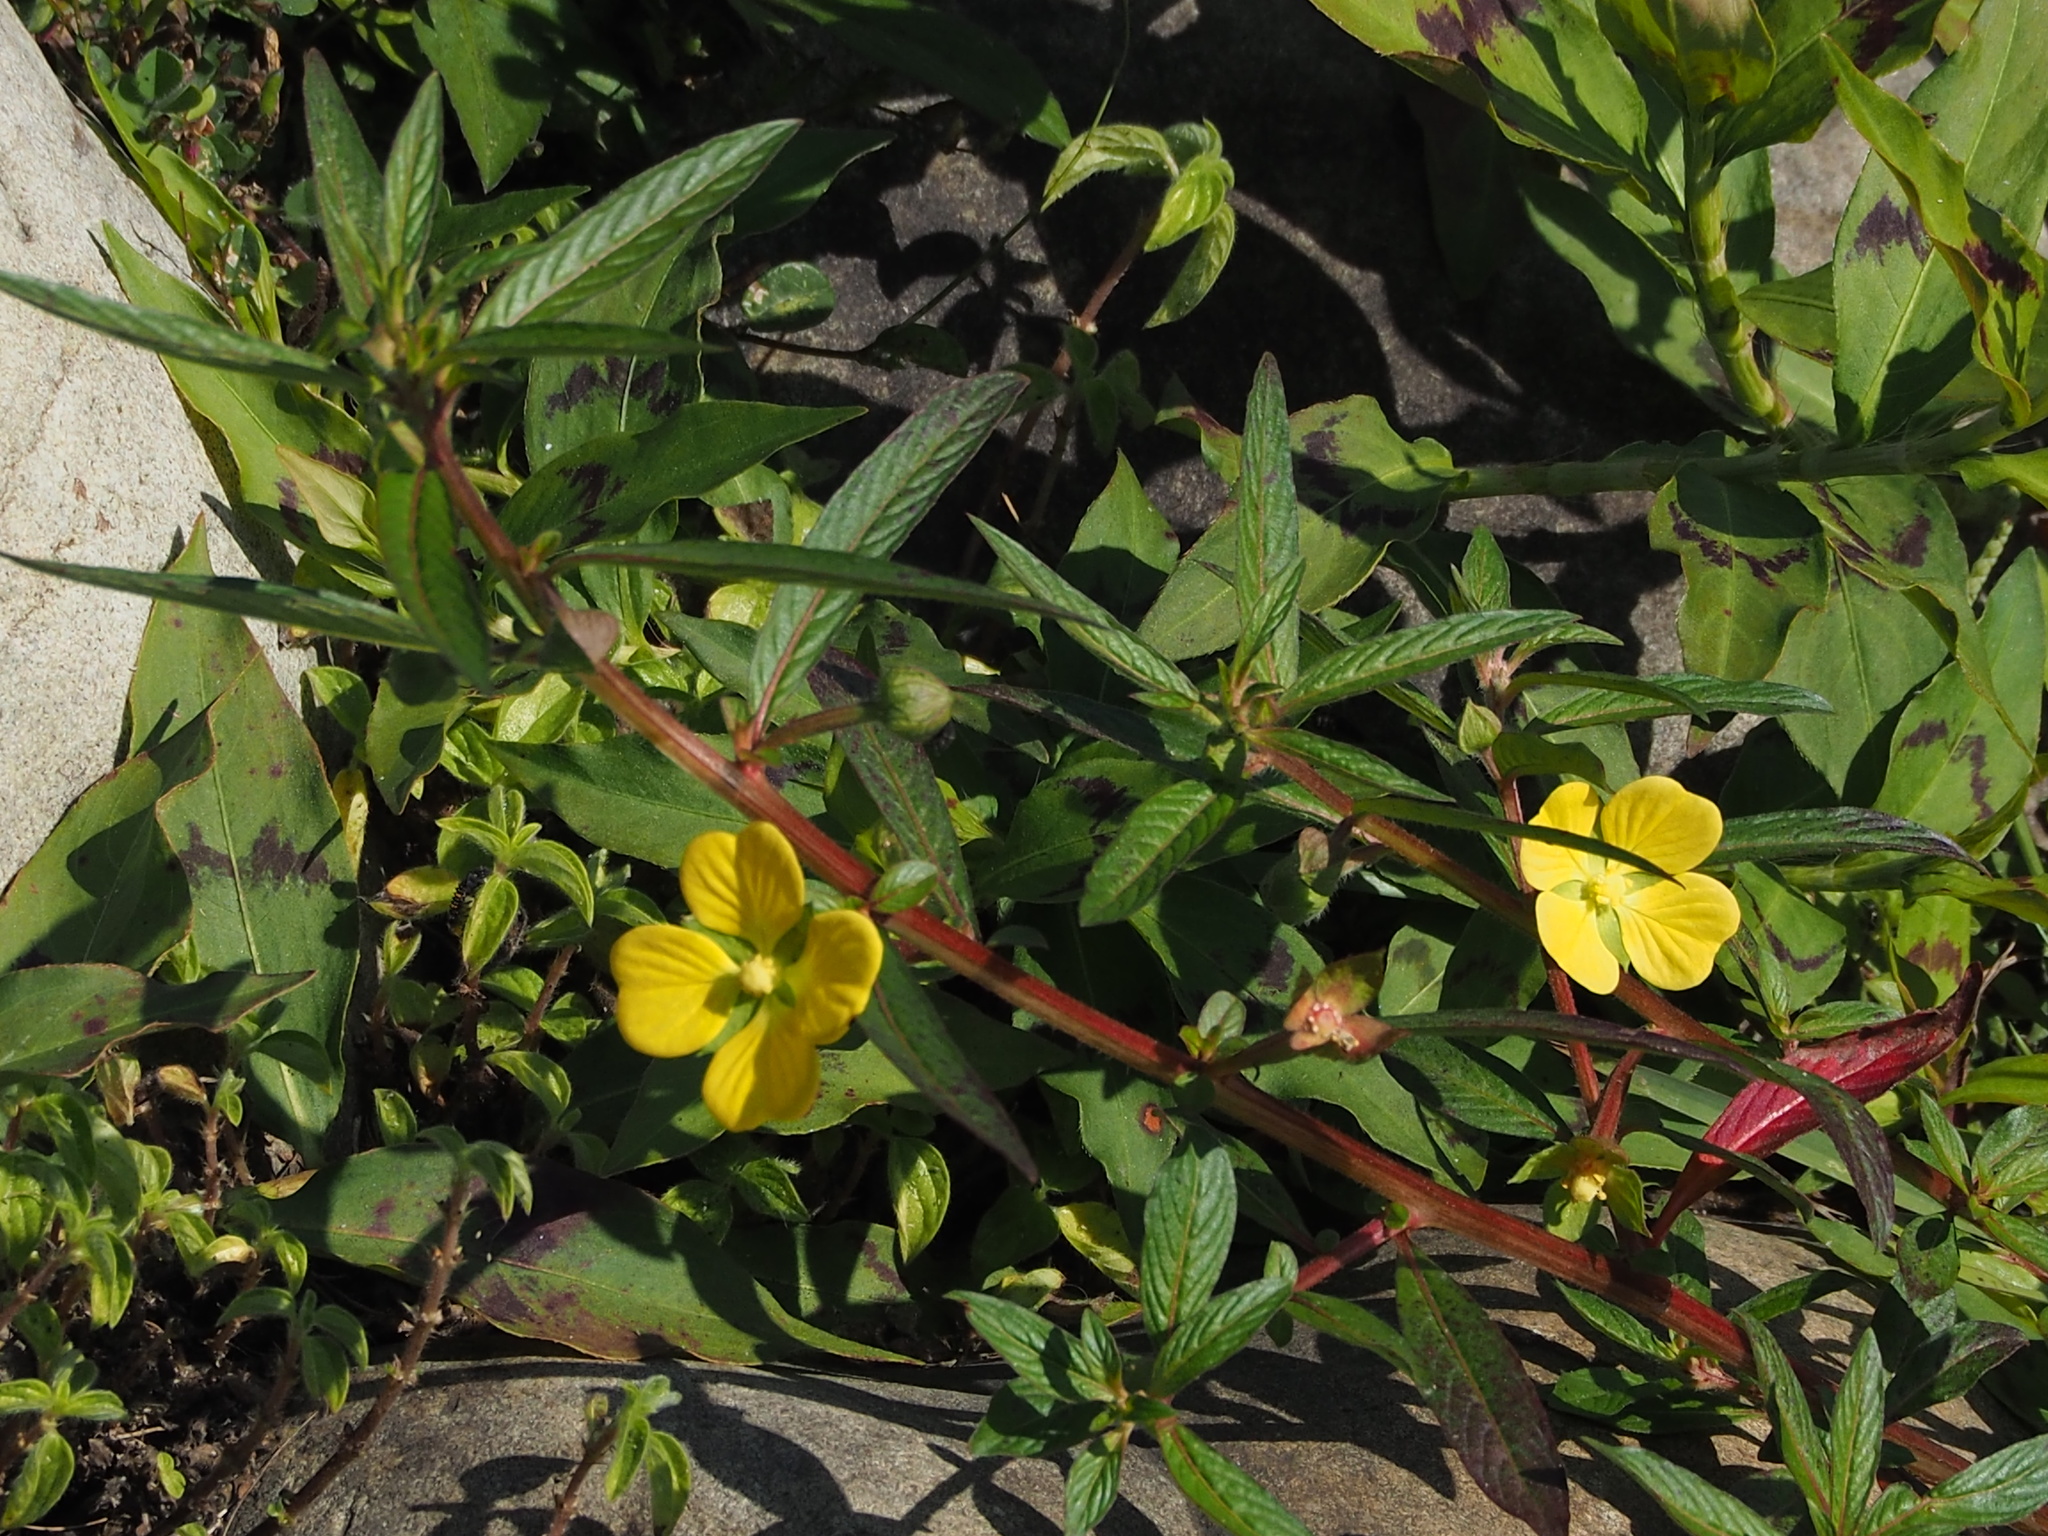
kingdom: Plantae
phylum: Tracheophyta
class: Magnoliopsida
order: Myrtales
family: Onagraceae
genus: Ludwigia
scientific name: Ludwigia octovalvis
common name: Water-primrose
